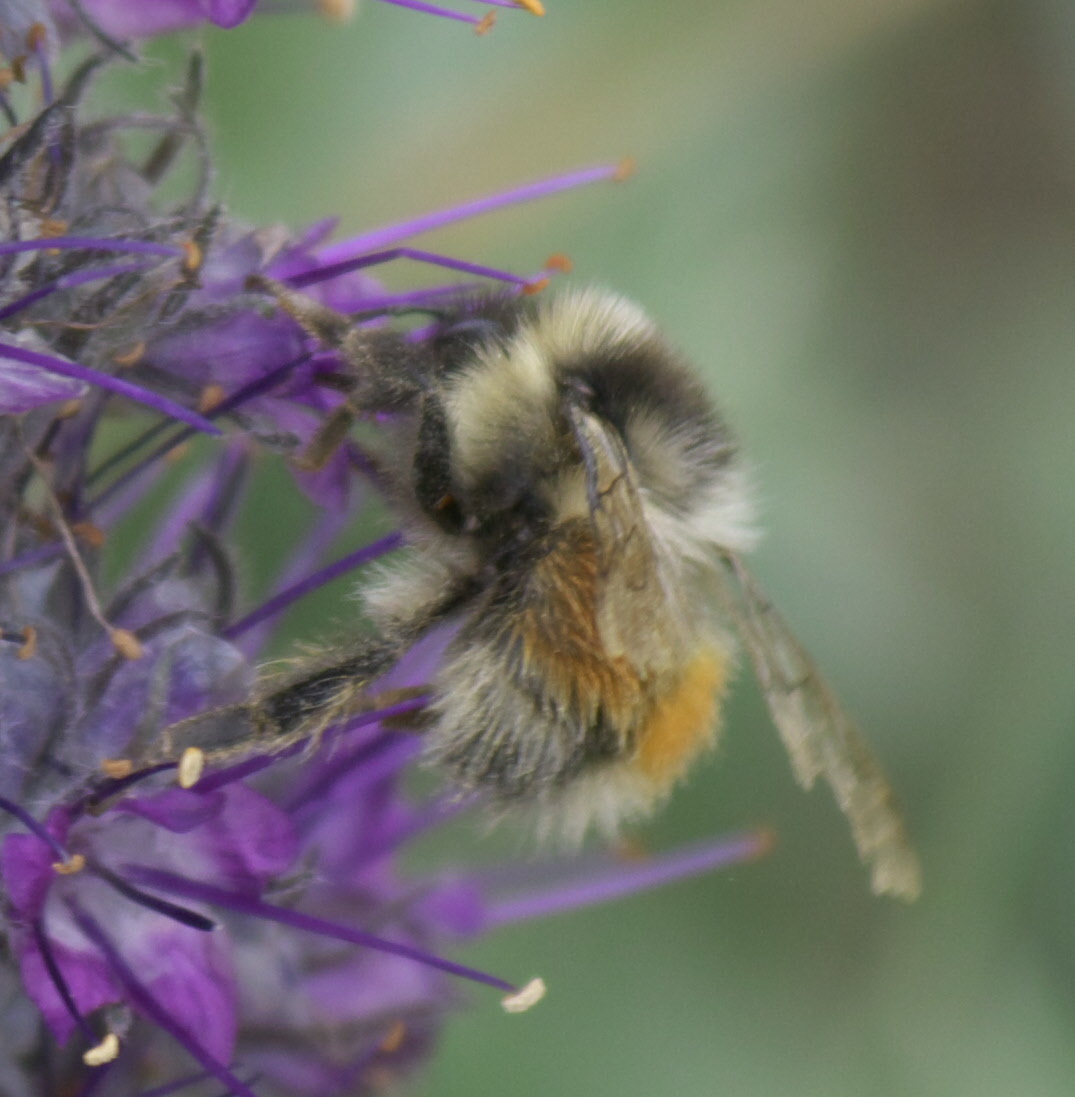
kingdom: Animalia
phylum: Arthropoda
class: Insecta
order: Hymenoptera
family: Apidae
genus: Bombus
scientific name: Bombus sylvicola
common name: Forest bumble bee
